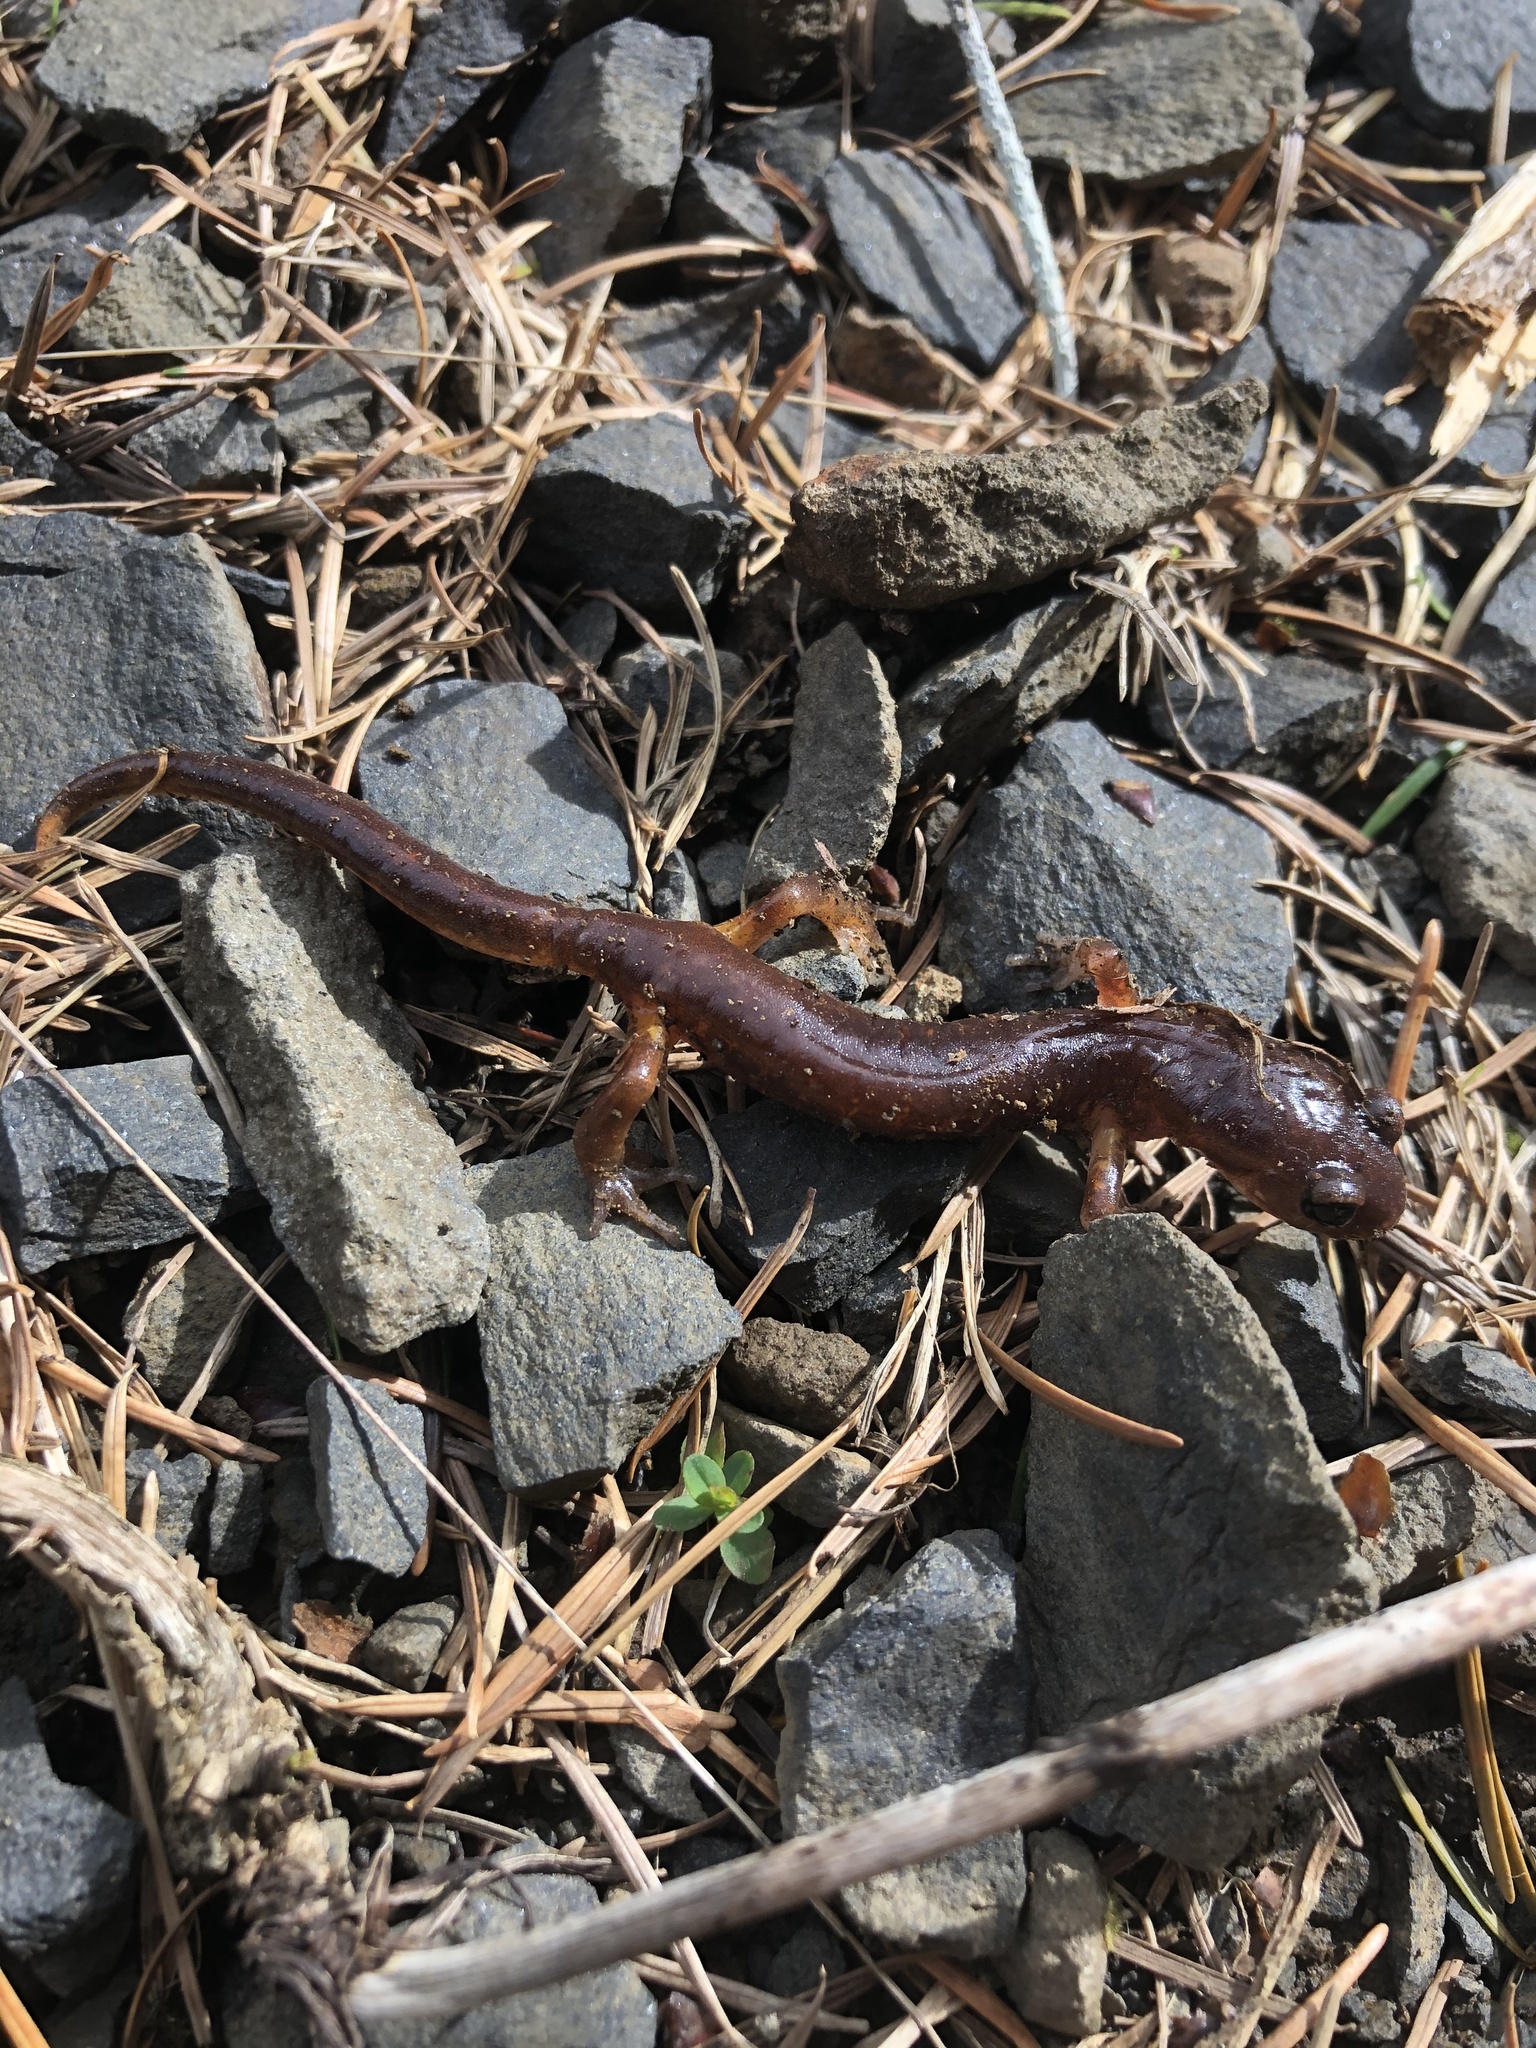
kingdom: Animalia
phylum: Chordata
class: Amphibia
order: Caudata
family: Plethodontidae
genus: Ensatina
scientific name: Ensatina eschscholtzii
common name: Ensatina
